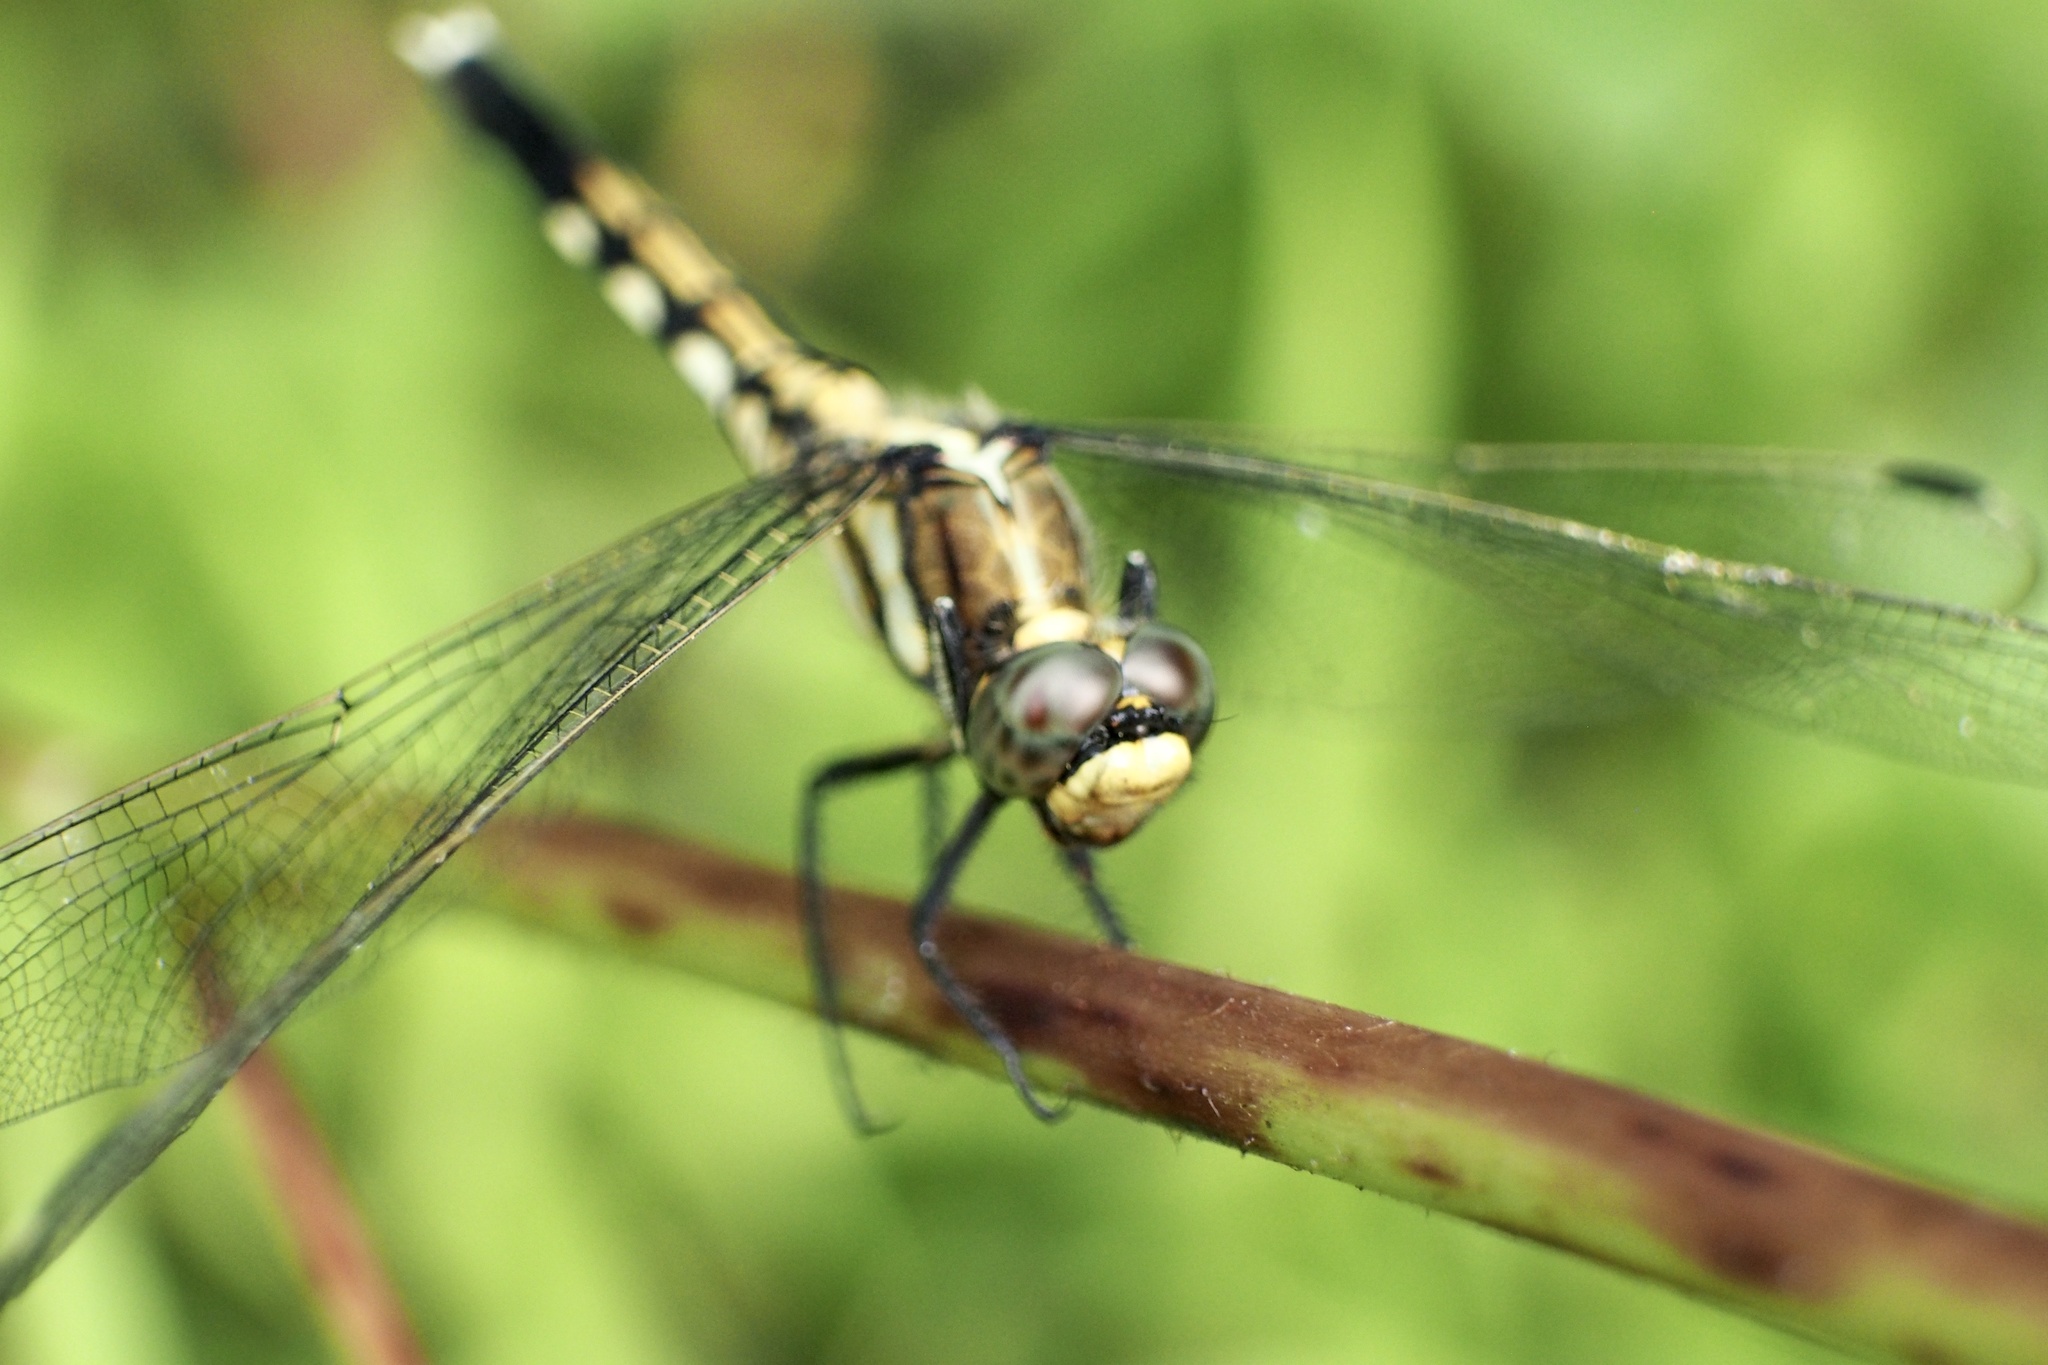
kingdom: Animalia
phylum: Arthropoda
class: Insecta
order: Odonata
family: Libellulidae
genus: Orthetrum
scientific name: Orthetrum albistylum
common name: White-tailed skimmer
